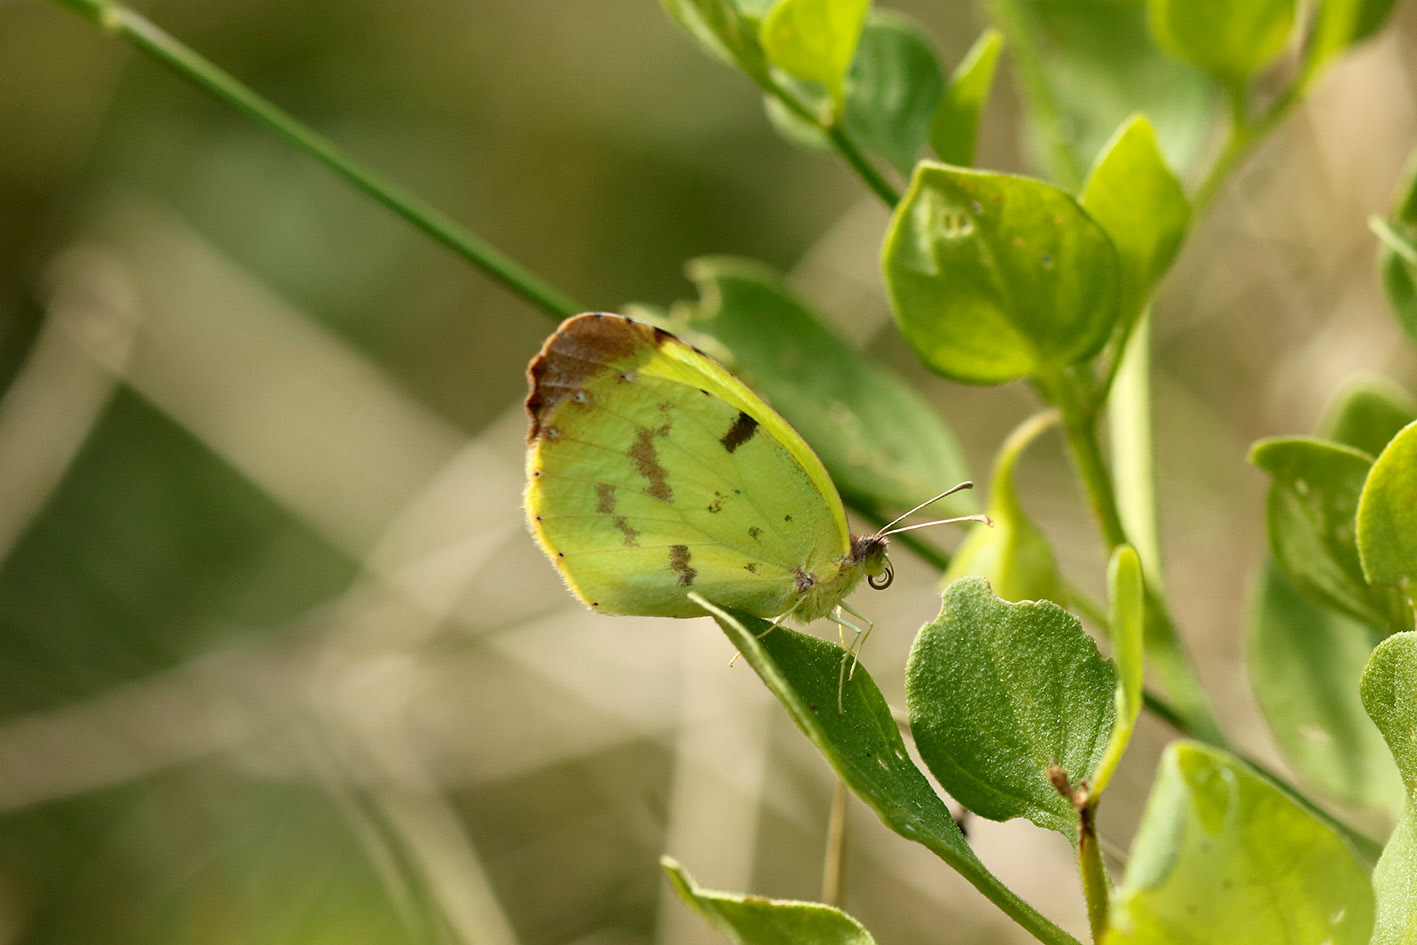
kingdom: Animalia
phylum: Arthropoda
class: Insecta
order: Lepidoptera
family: Pieridae
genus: Teriocolias
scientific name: Teriocolias
